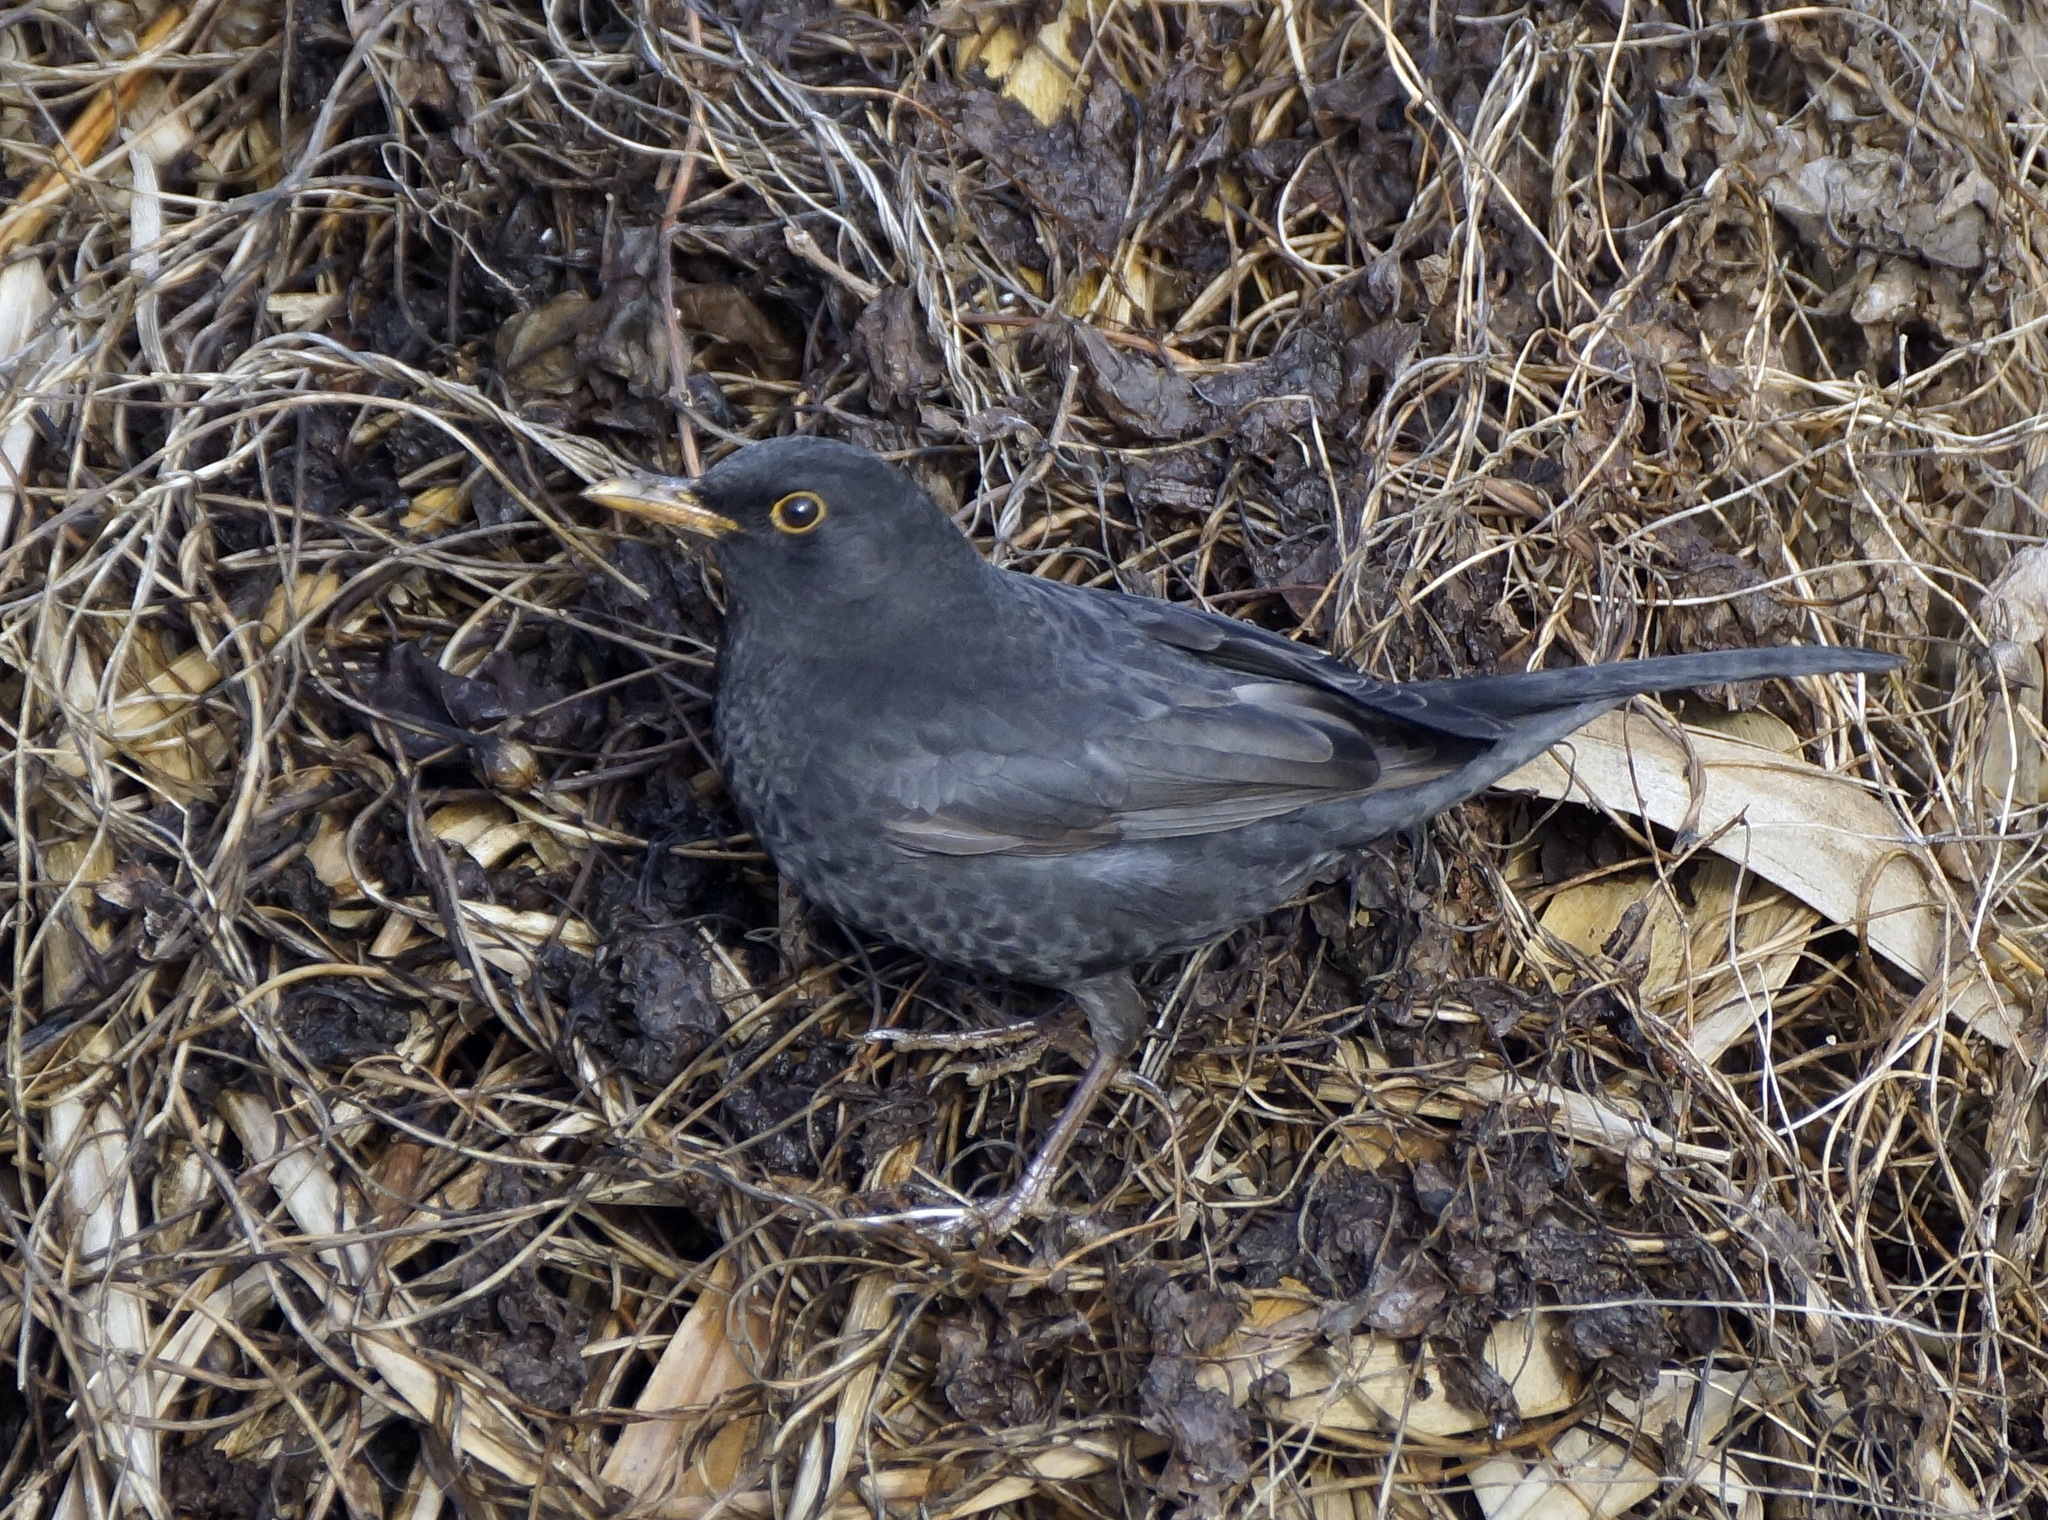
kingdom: Animalia
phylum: Chordata
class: Aves
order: Passeriformes
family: Turdidae
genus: Turdus
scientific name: Turdus merula
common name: Common blackbird
